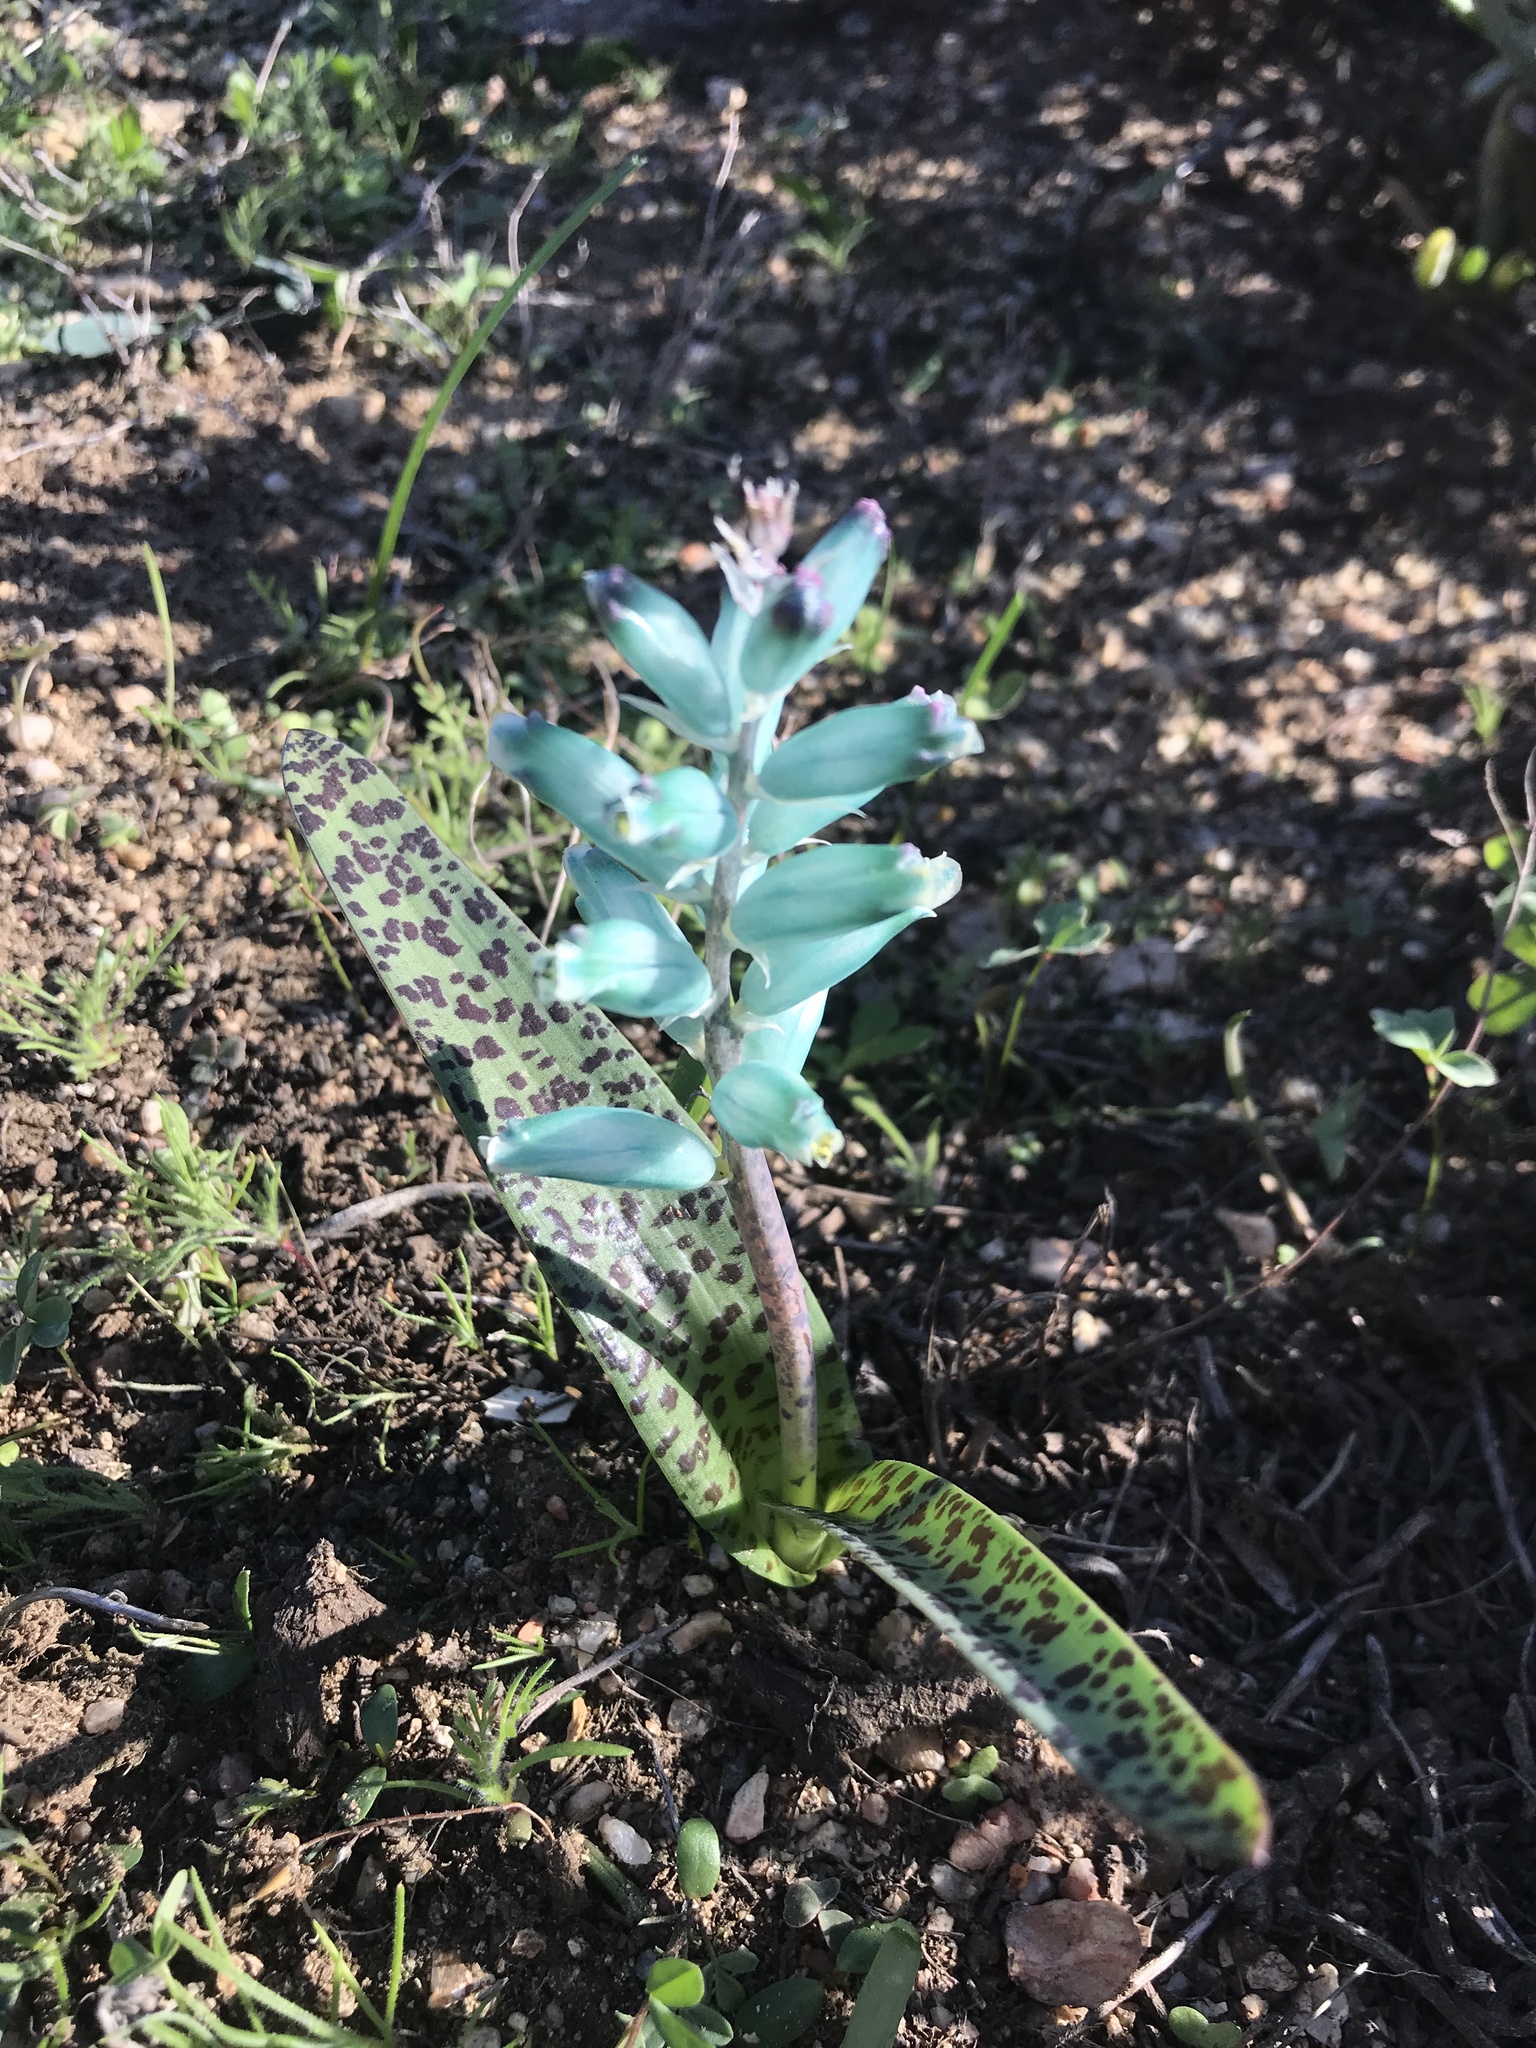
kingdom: Plantae
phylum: Tracheophyta
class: Liliopsida
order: Asparagales
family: Asparagaceae
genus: Lachenalia
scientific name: Lachenalia viridiflora
